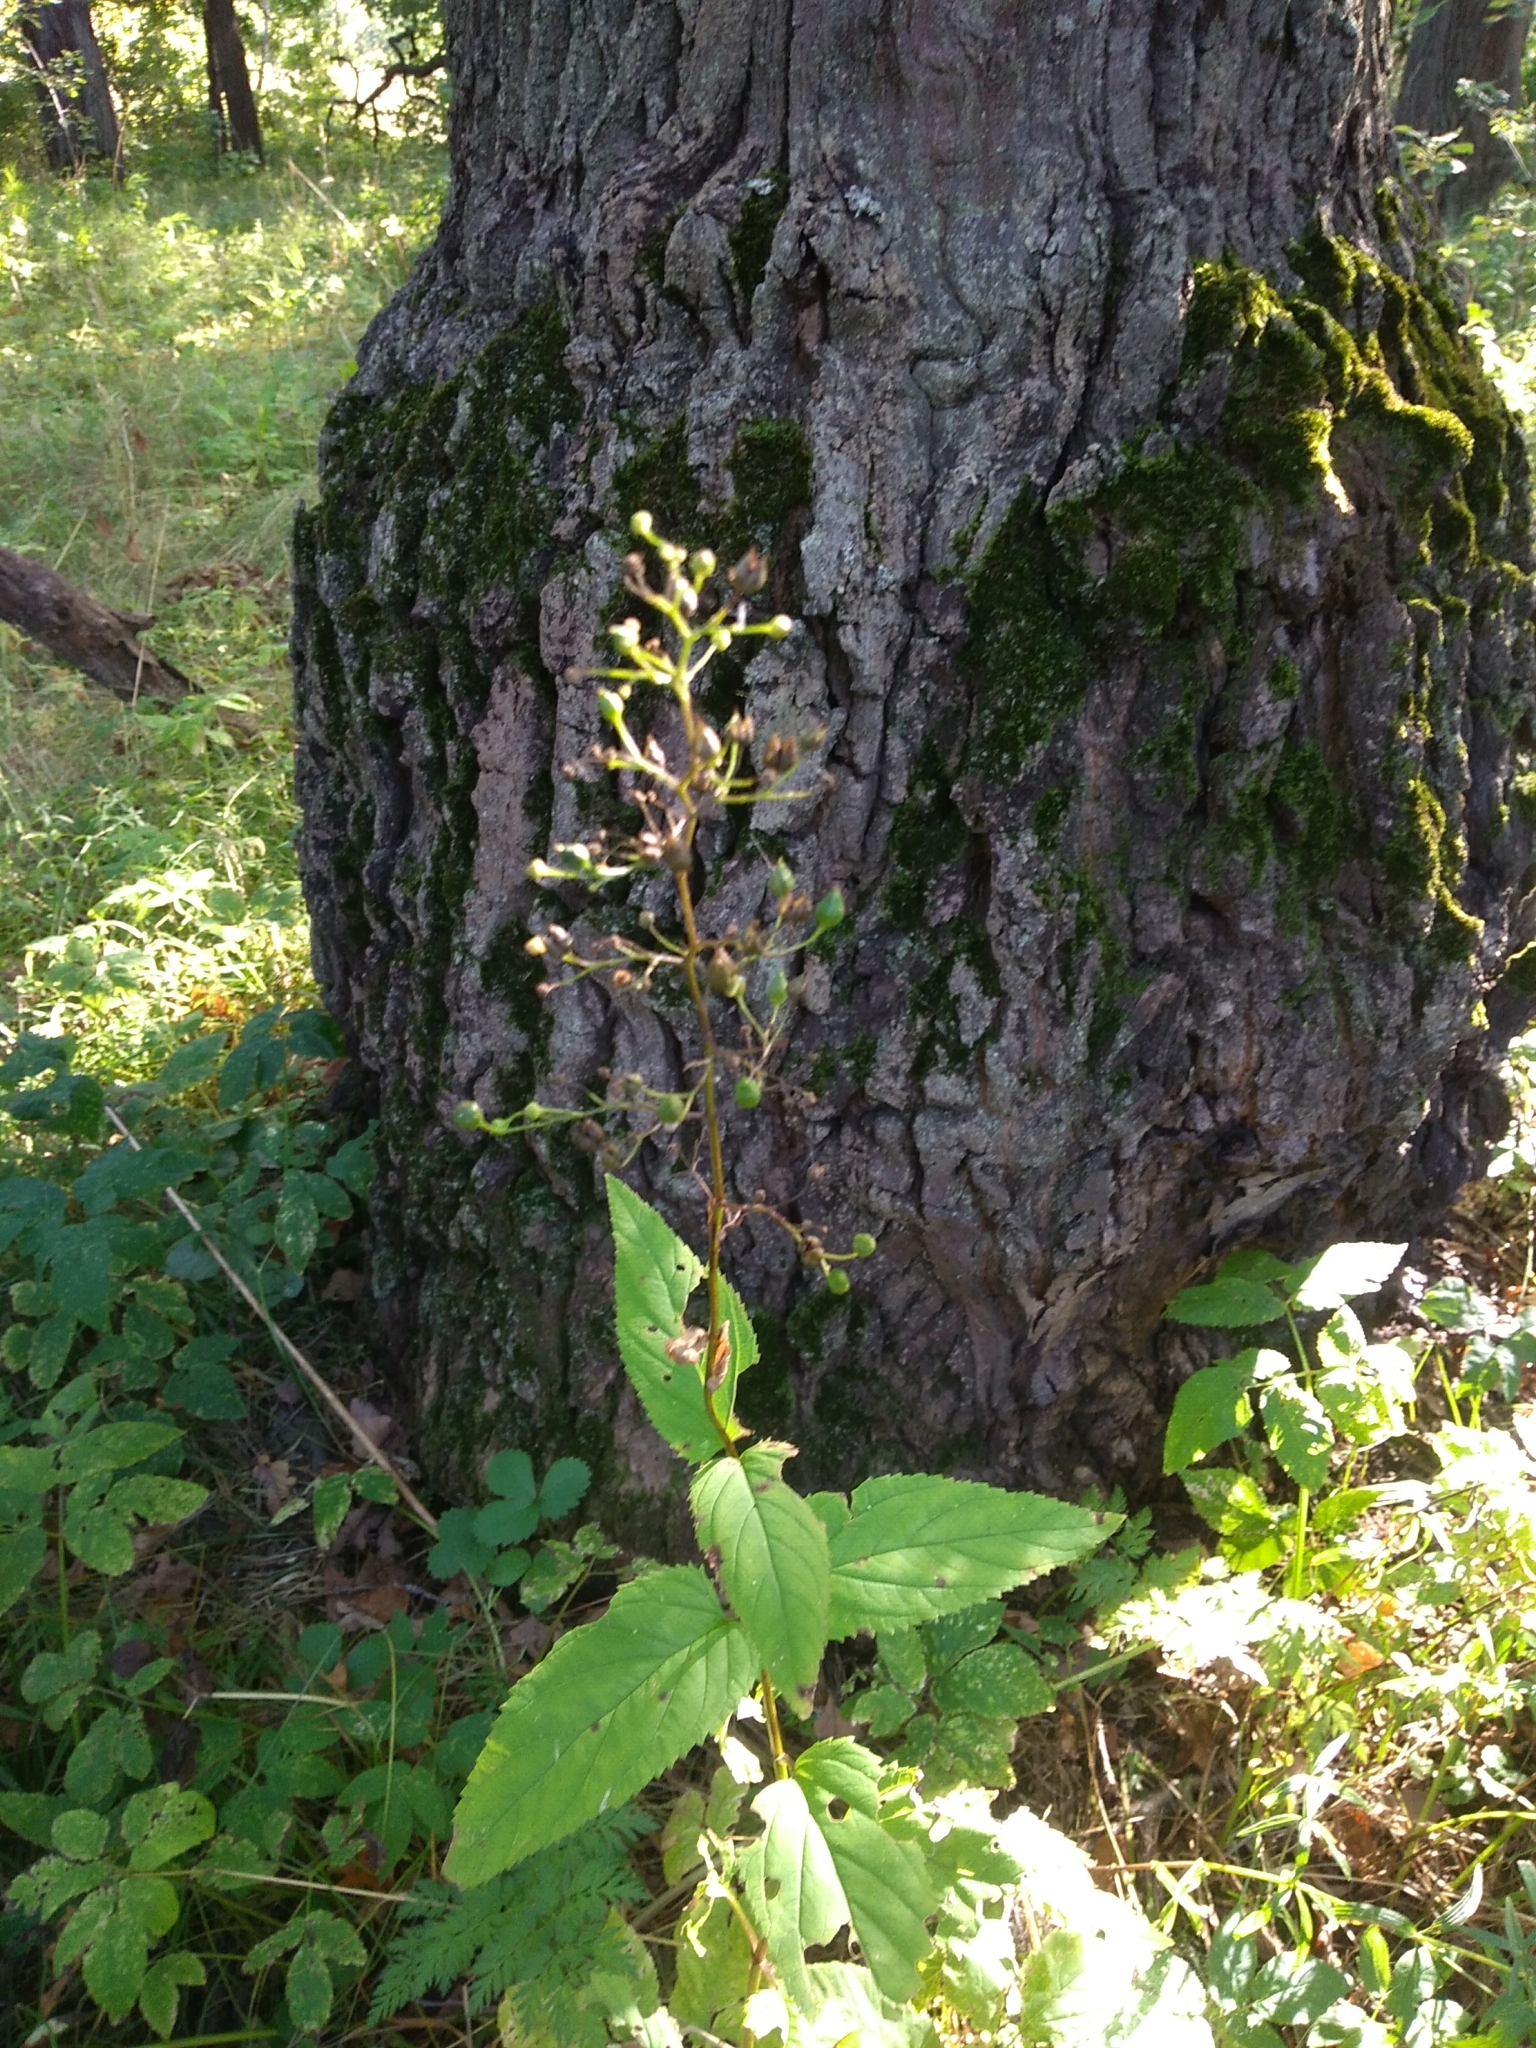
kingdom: Plantae
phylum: Tracheophyta
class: Magnoliopsida
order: Lamiales
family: Scrophulariaceae
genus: Scrophularia
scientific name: Scrophularia nodosa
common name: Common figwort
